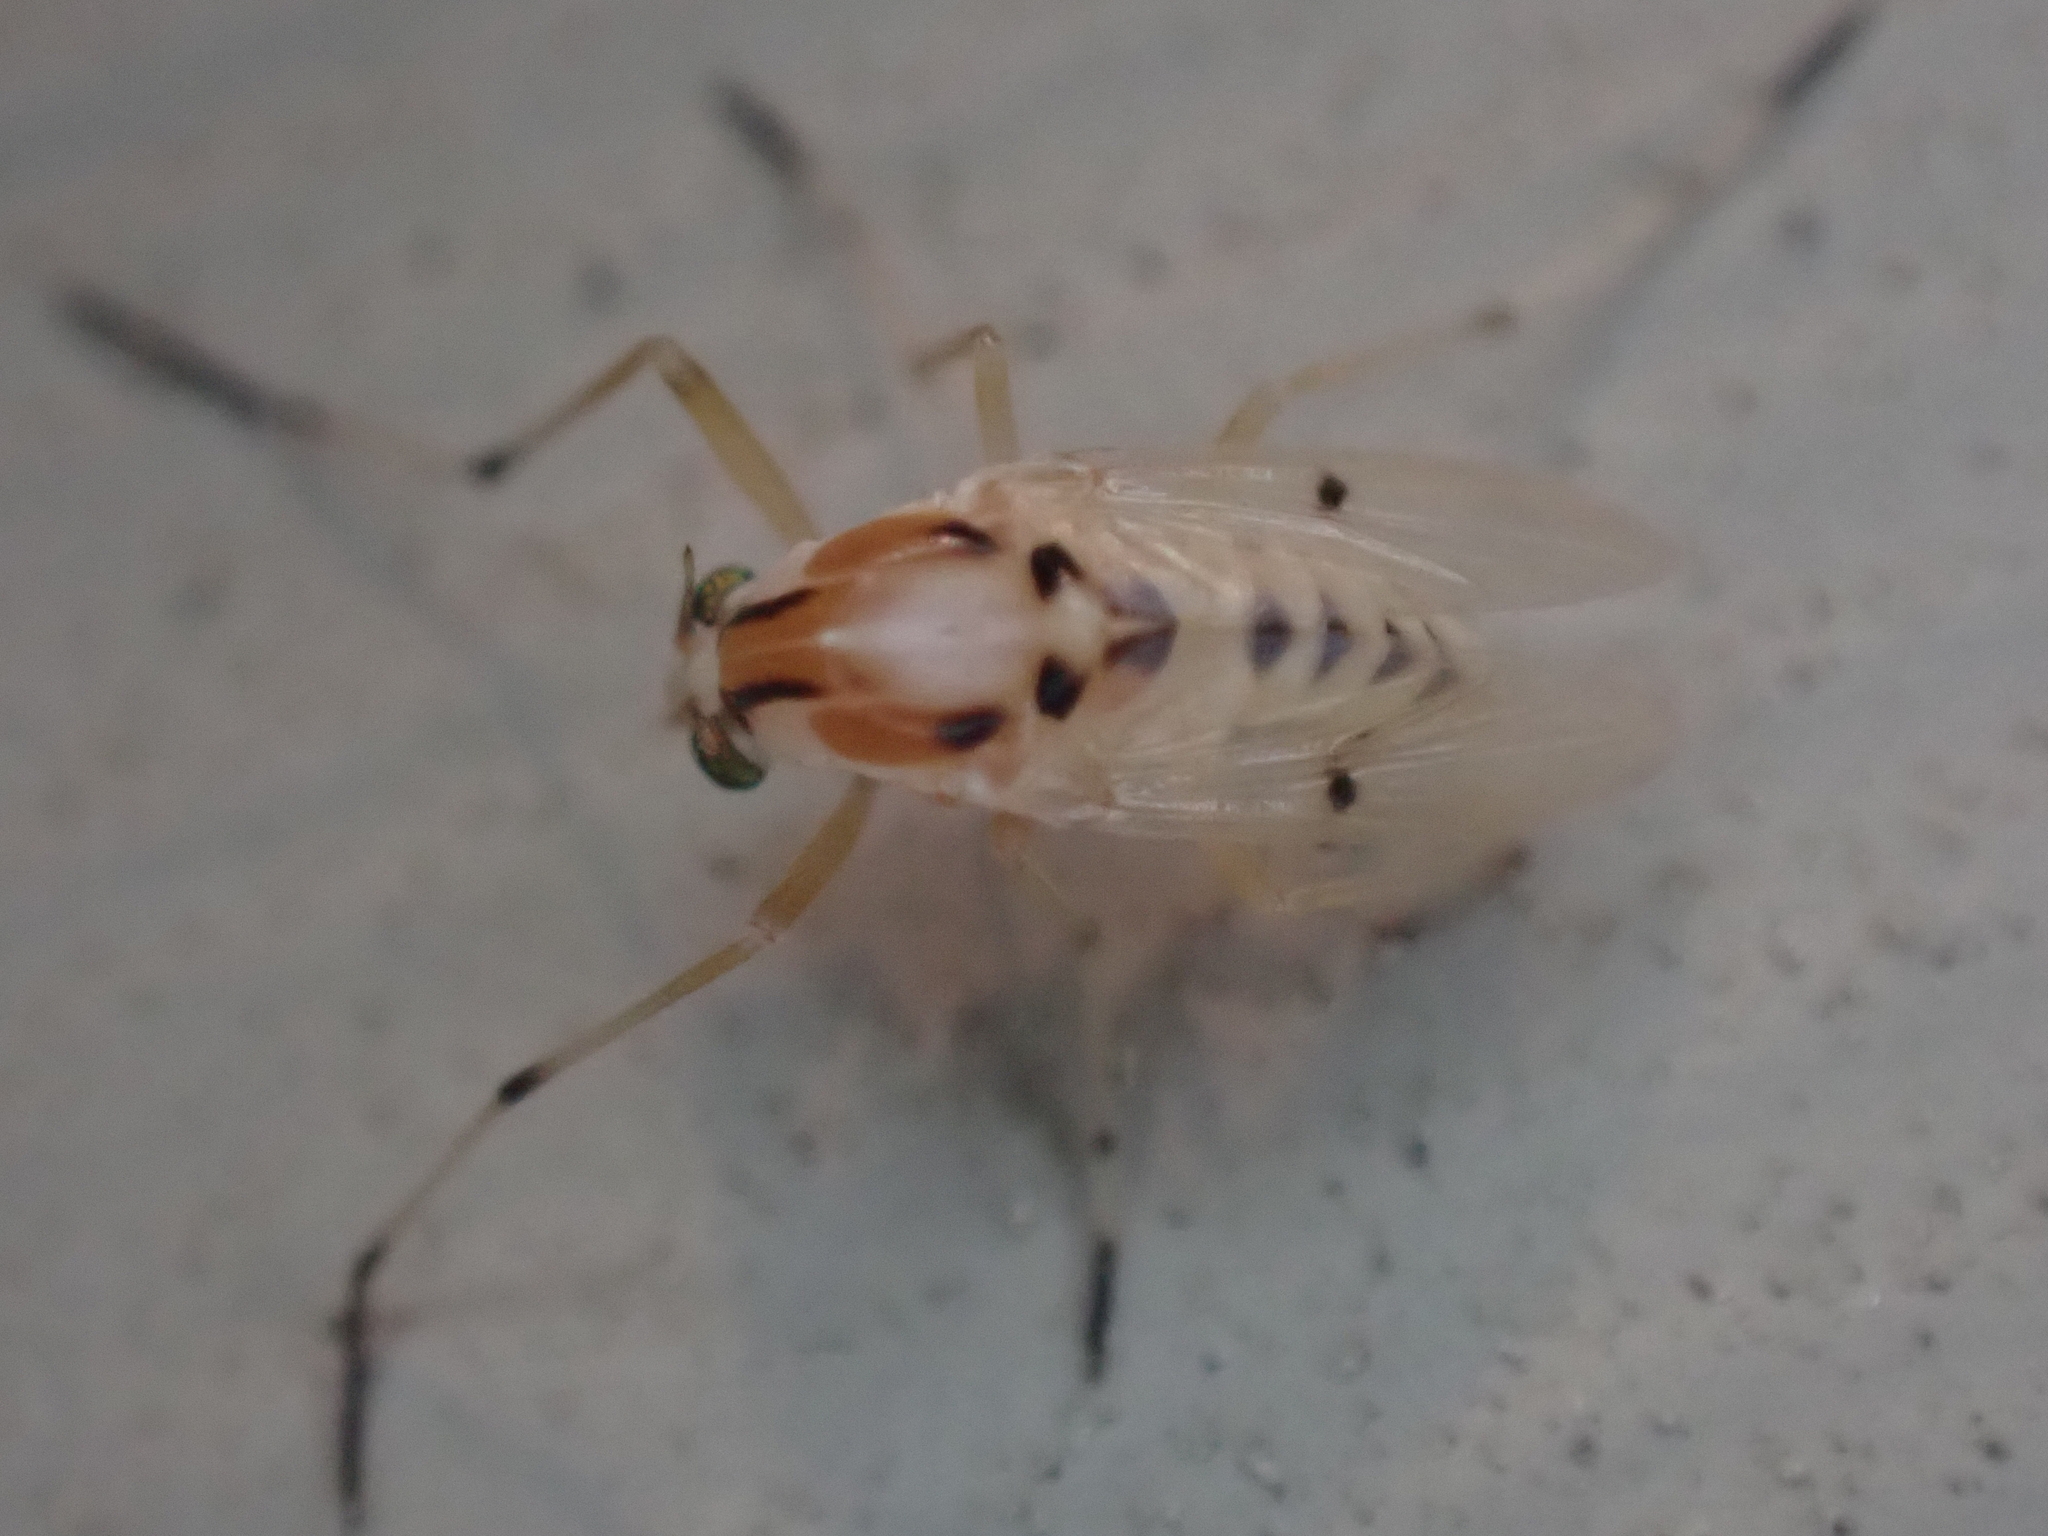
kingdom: Animalia
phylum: Arthropoda
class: Insecta
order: Diptera
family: Chironomidae
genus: Coelotanypus
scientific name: Coelotanypus concinnus
